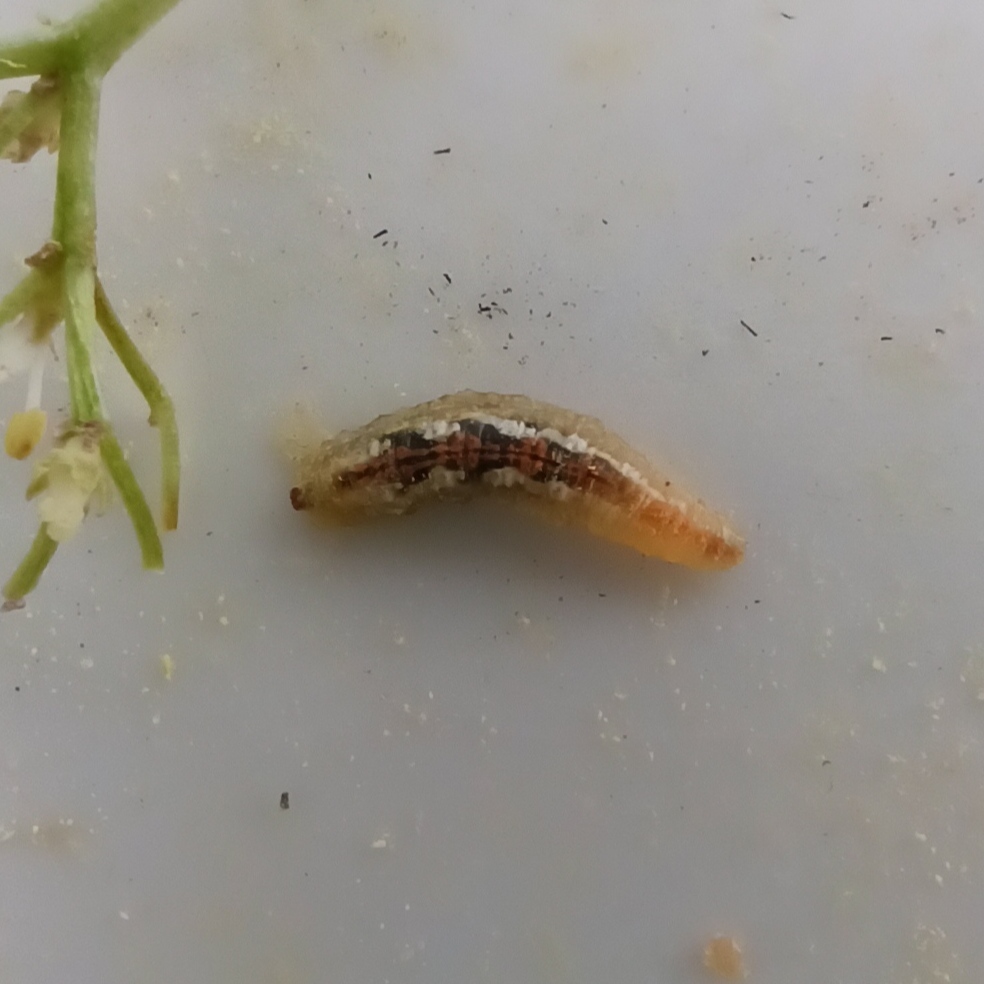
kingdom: Animalia
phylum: Arthropoda
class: Insecta
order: Diptera
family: Syrphidae
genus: Syrphus
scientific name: Syrphus
